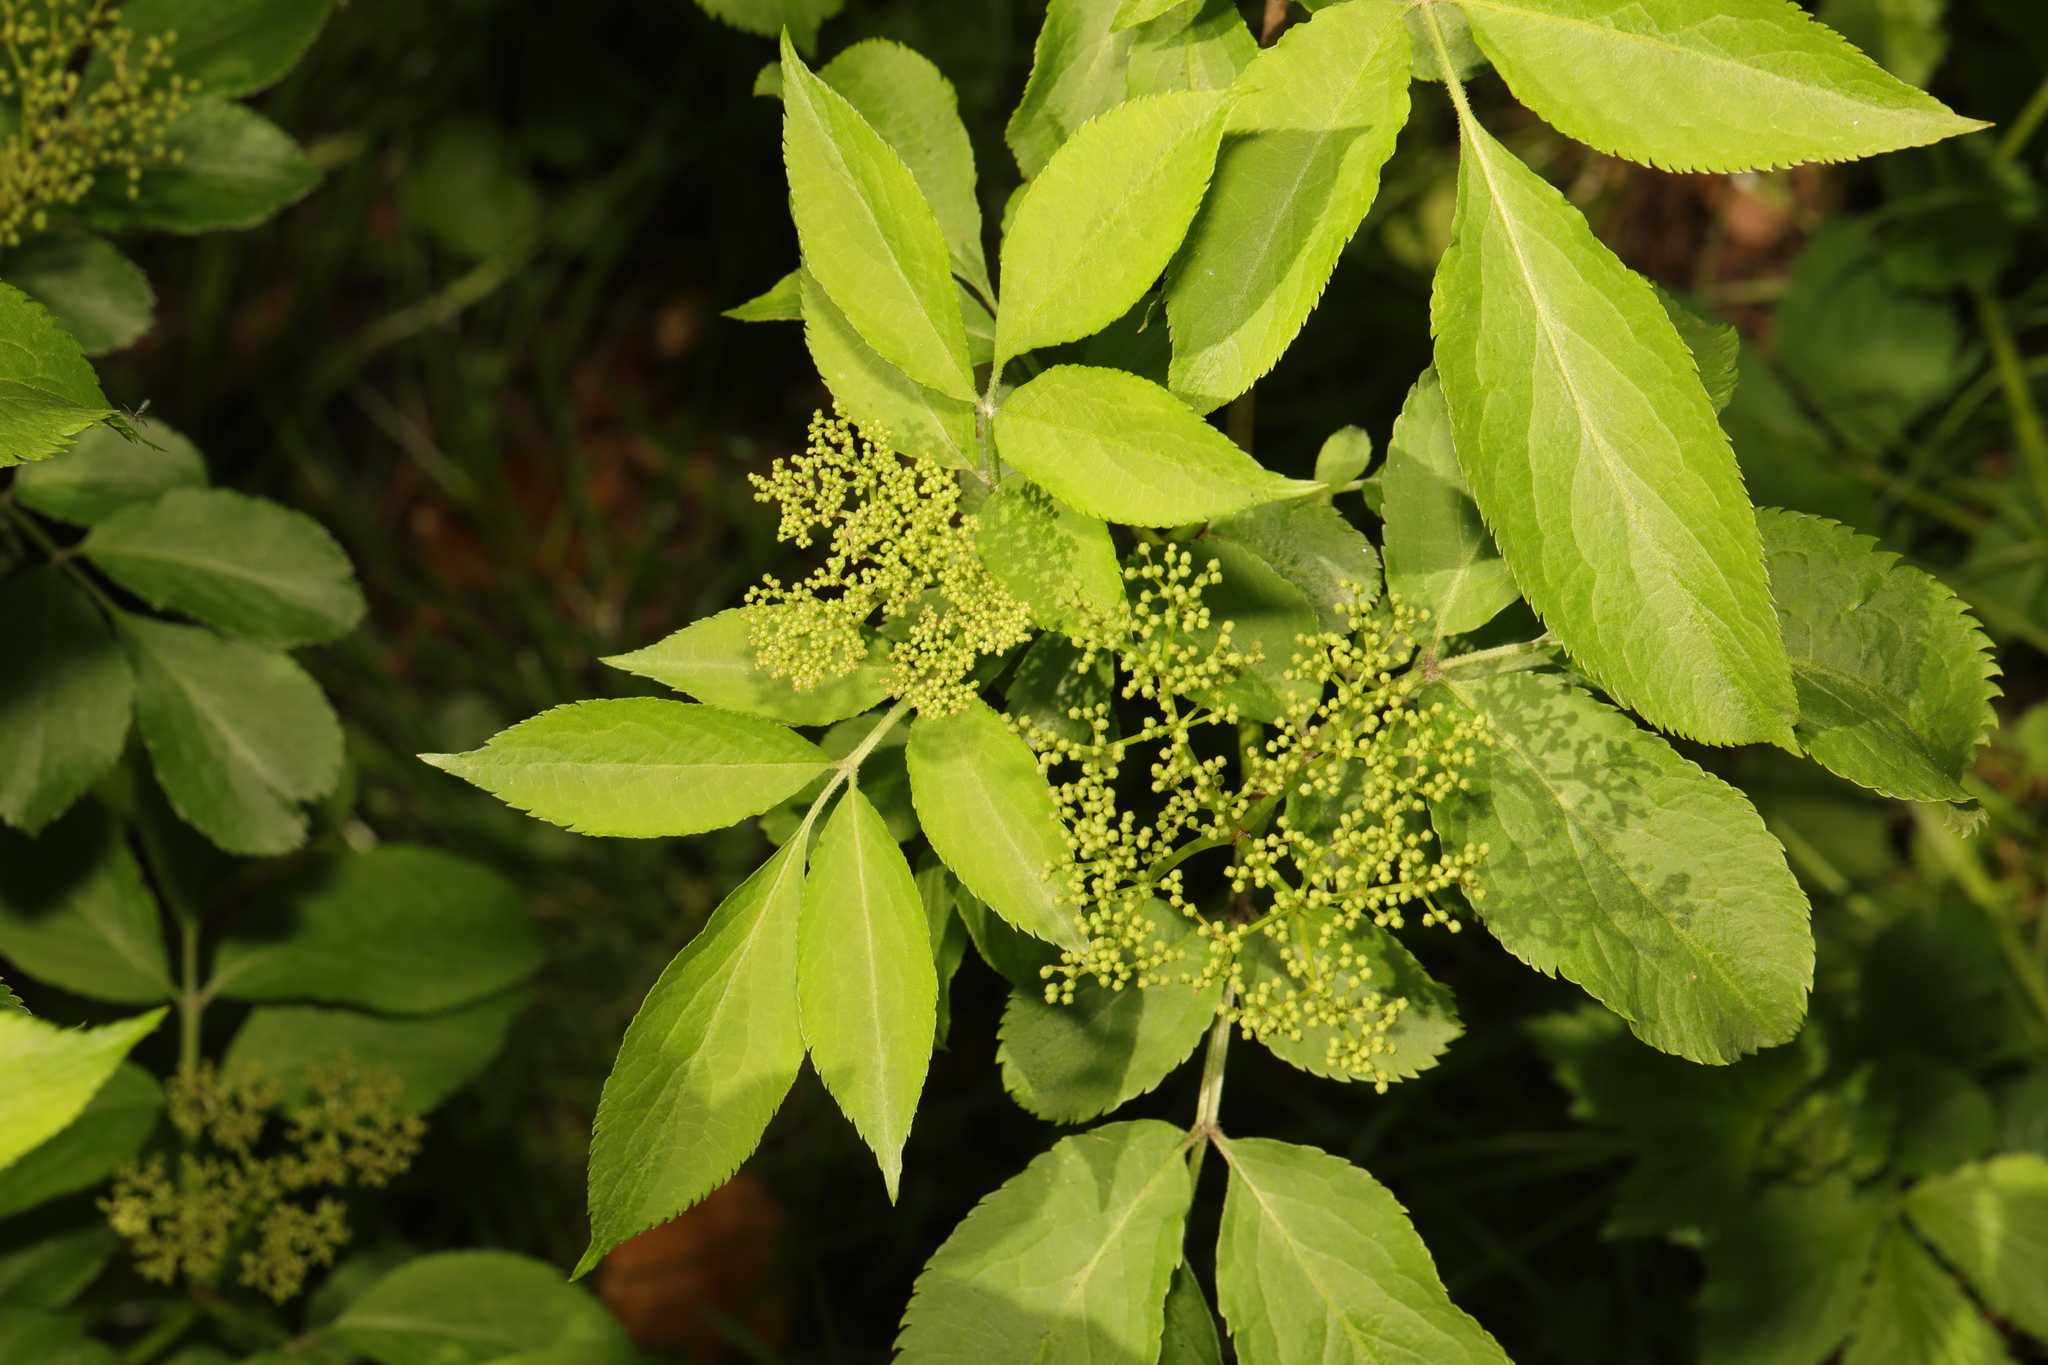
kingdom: Plantae
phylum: Tracheophyta
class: Magnoliopsida
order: Dipsacales
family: Viburnaceae
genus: Sambucus
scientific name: Sambucus nigra
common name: Elder
